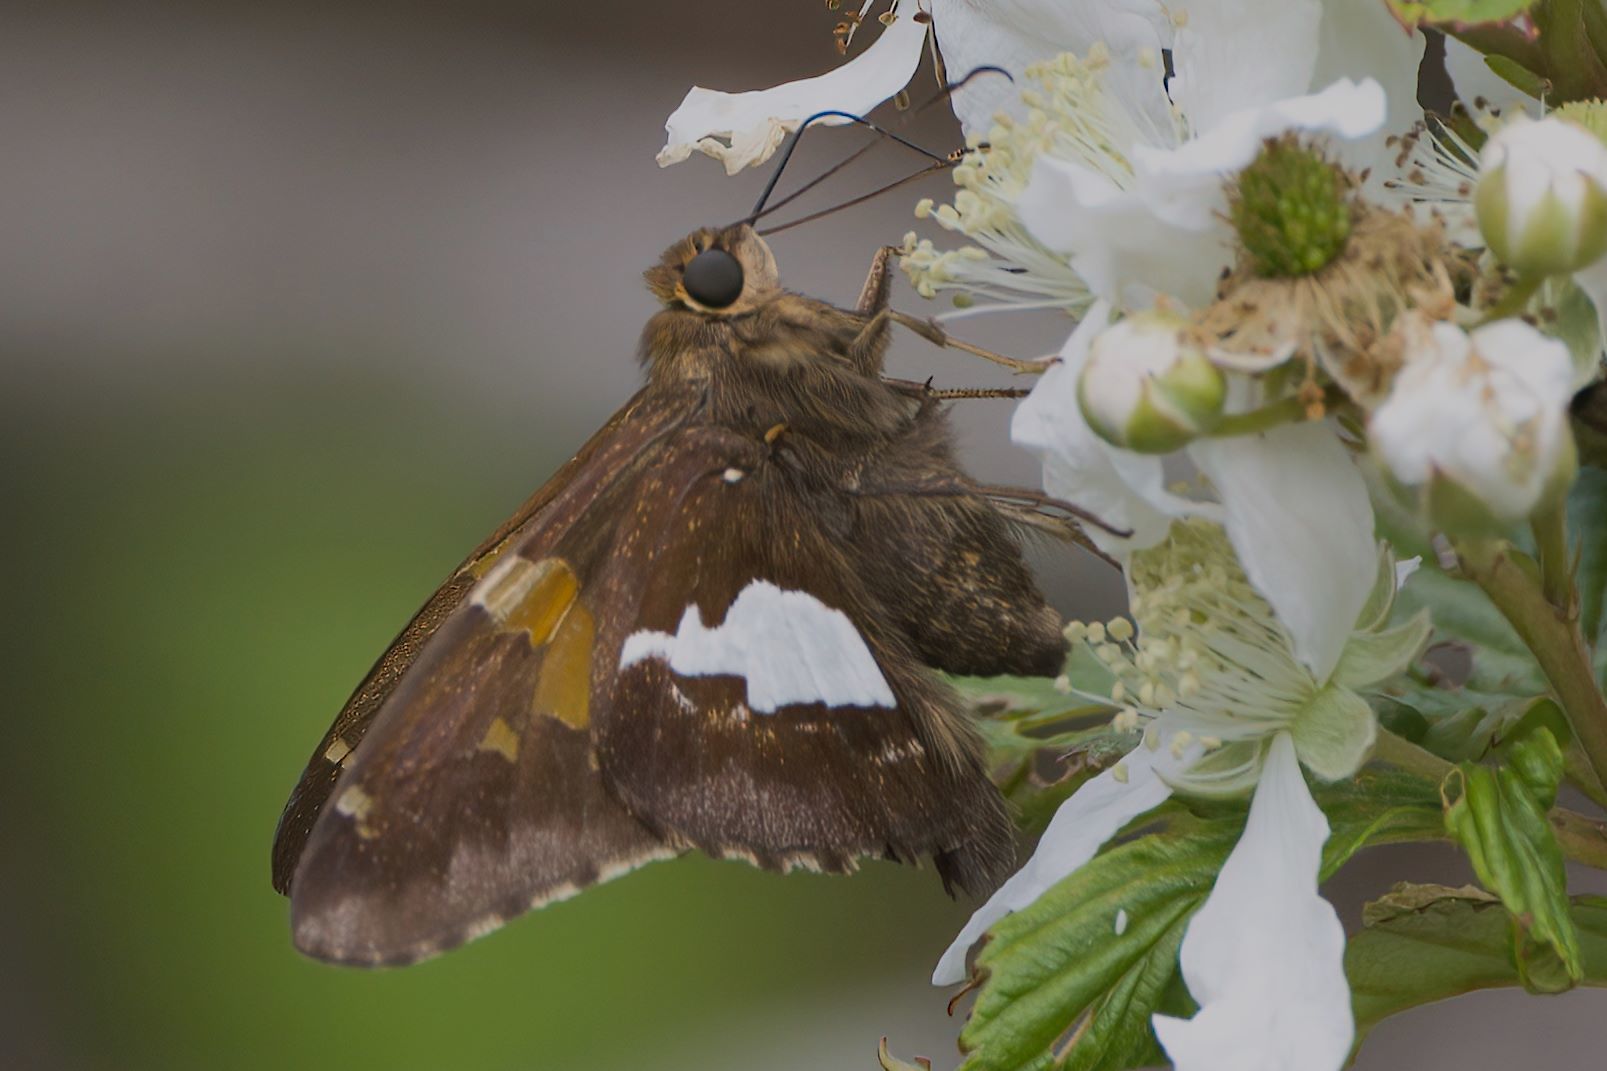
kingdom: Animalia
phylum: Arthropoda
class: Insecta
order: Lepidoptera
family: Hesperiidae
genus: Epargyreus
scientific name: Epargyreus clarus
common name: Silver-spotted skipper
